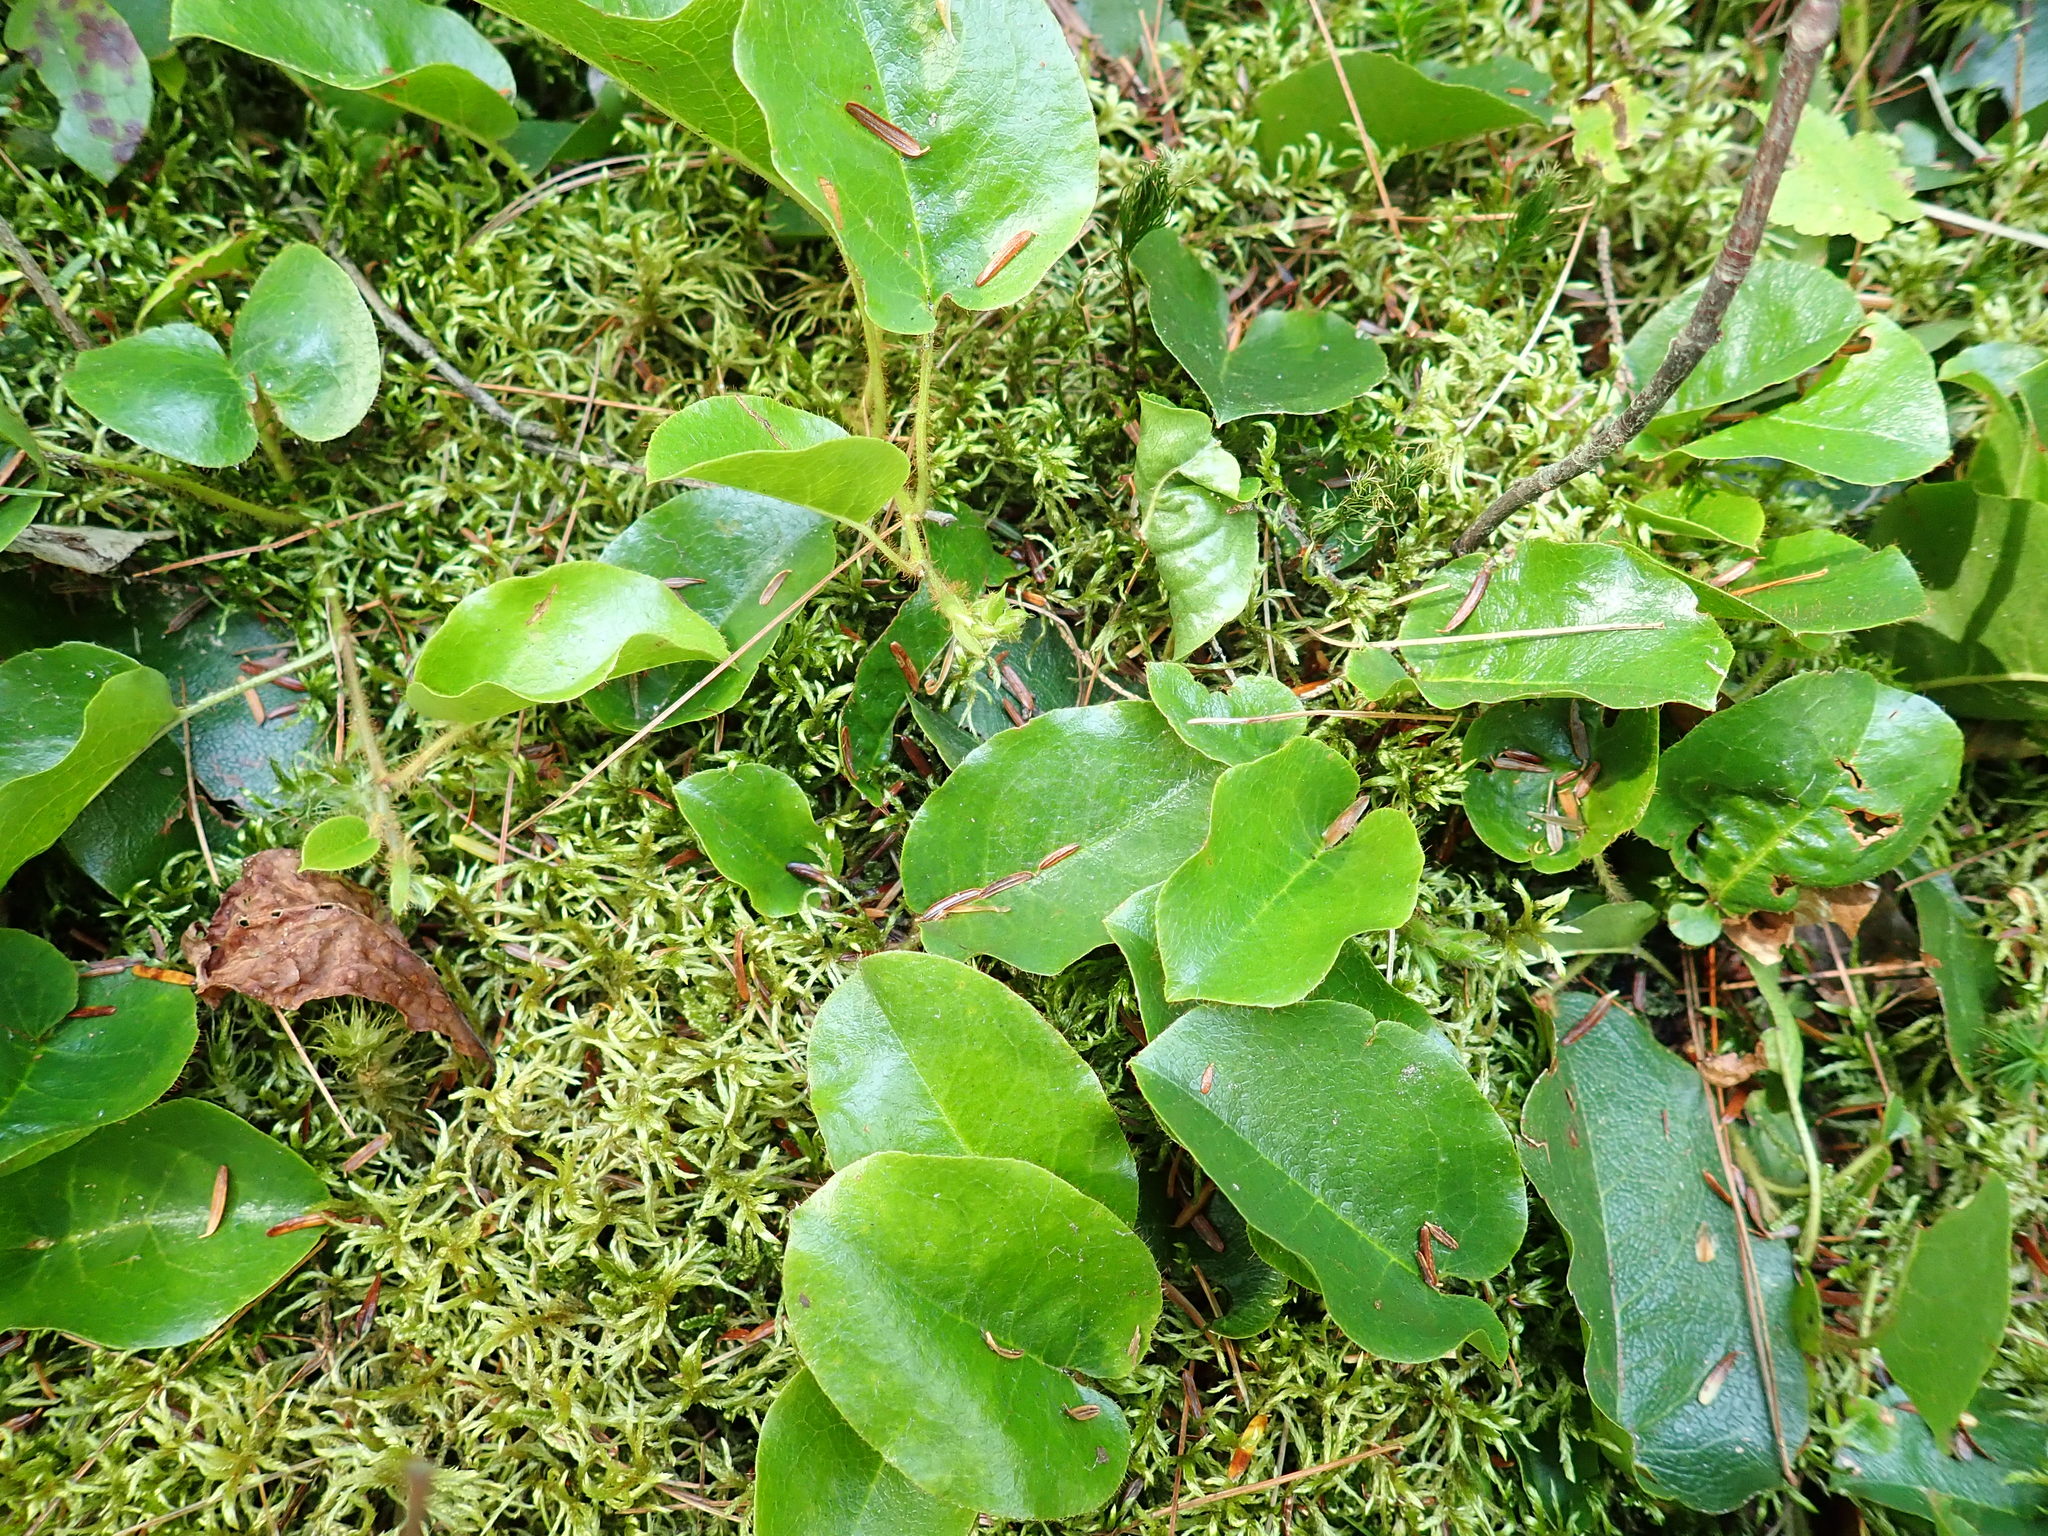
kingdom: Plantae
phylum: Tracheophyta
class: Magnoliopsida
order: Ericales
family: Ericaceae
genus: Epigaea
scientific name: Epigaea repens
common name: Gravelroot
